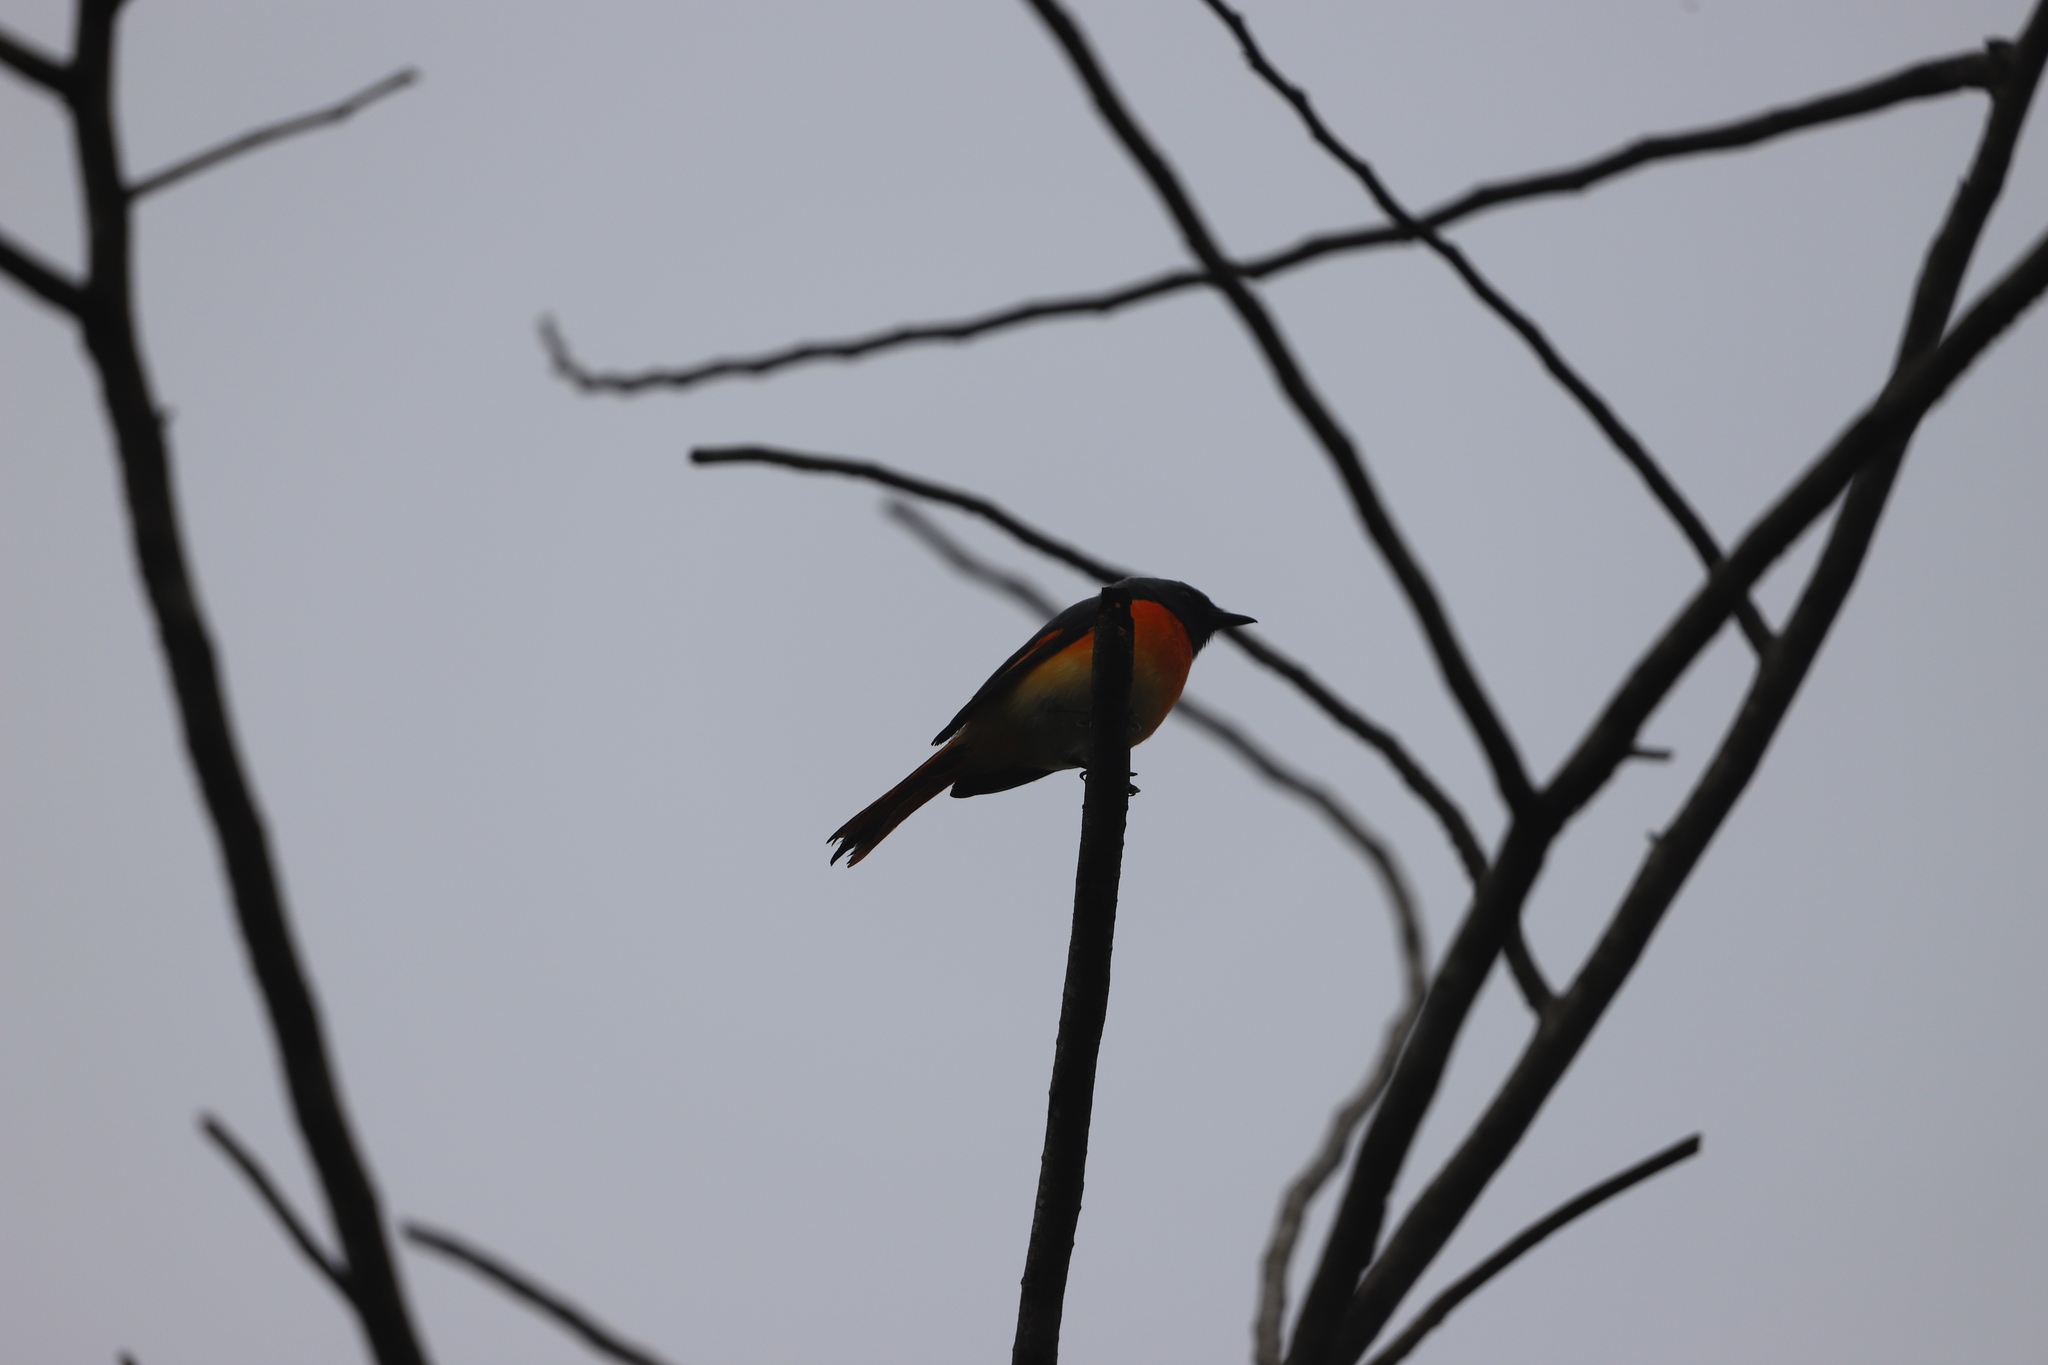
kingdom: Animalia
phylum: Chordata
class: Aves
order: Passeriformes
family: Campephagidae
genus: Pericrocotus
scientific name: Pericrocotus cinnamomeus
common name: Small minivet
